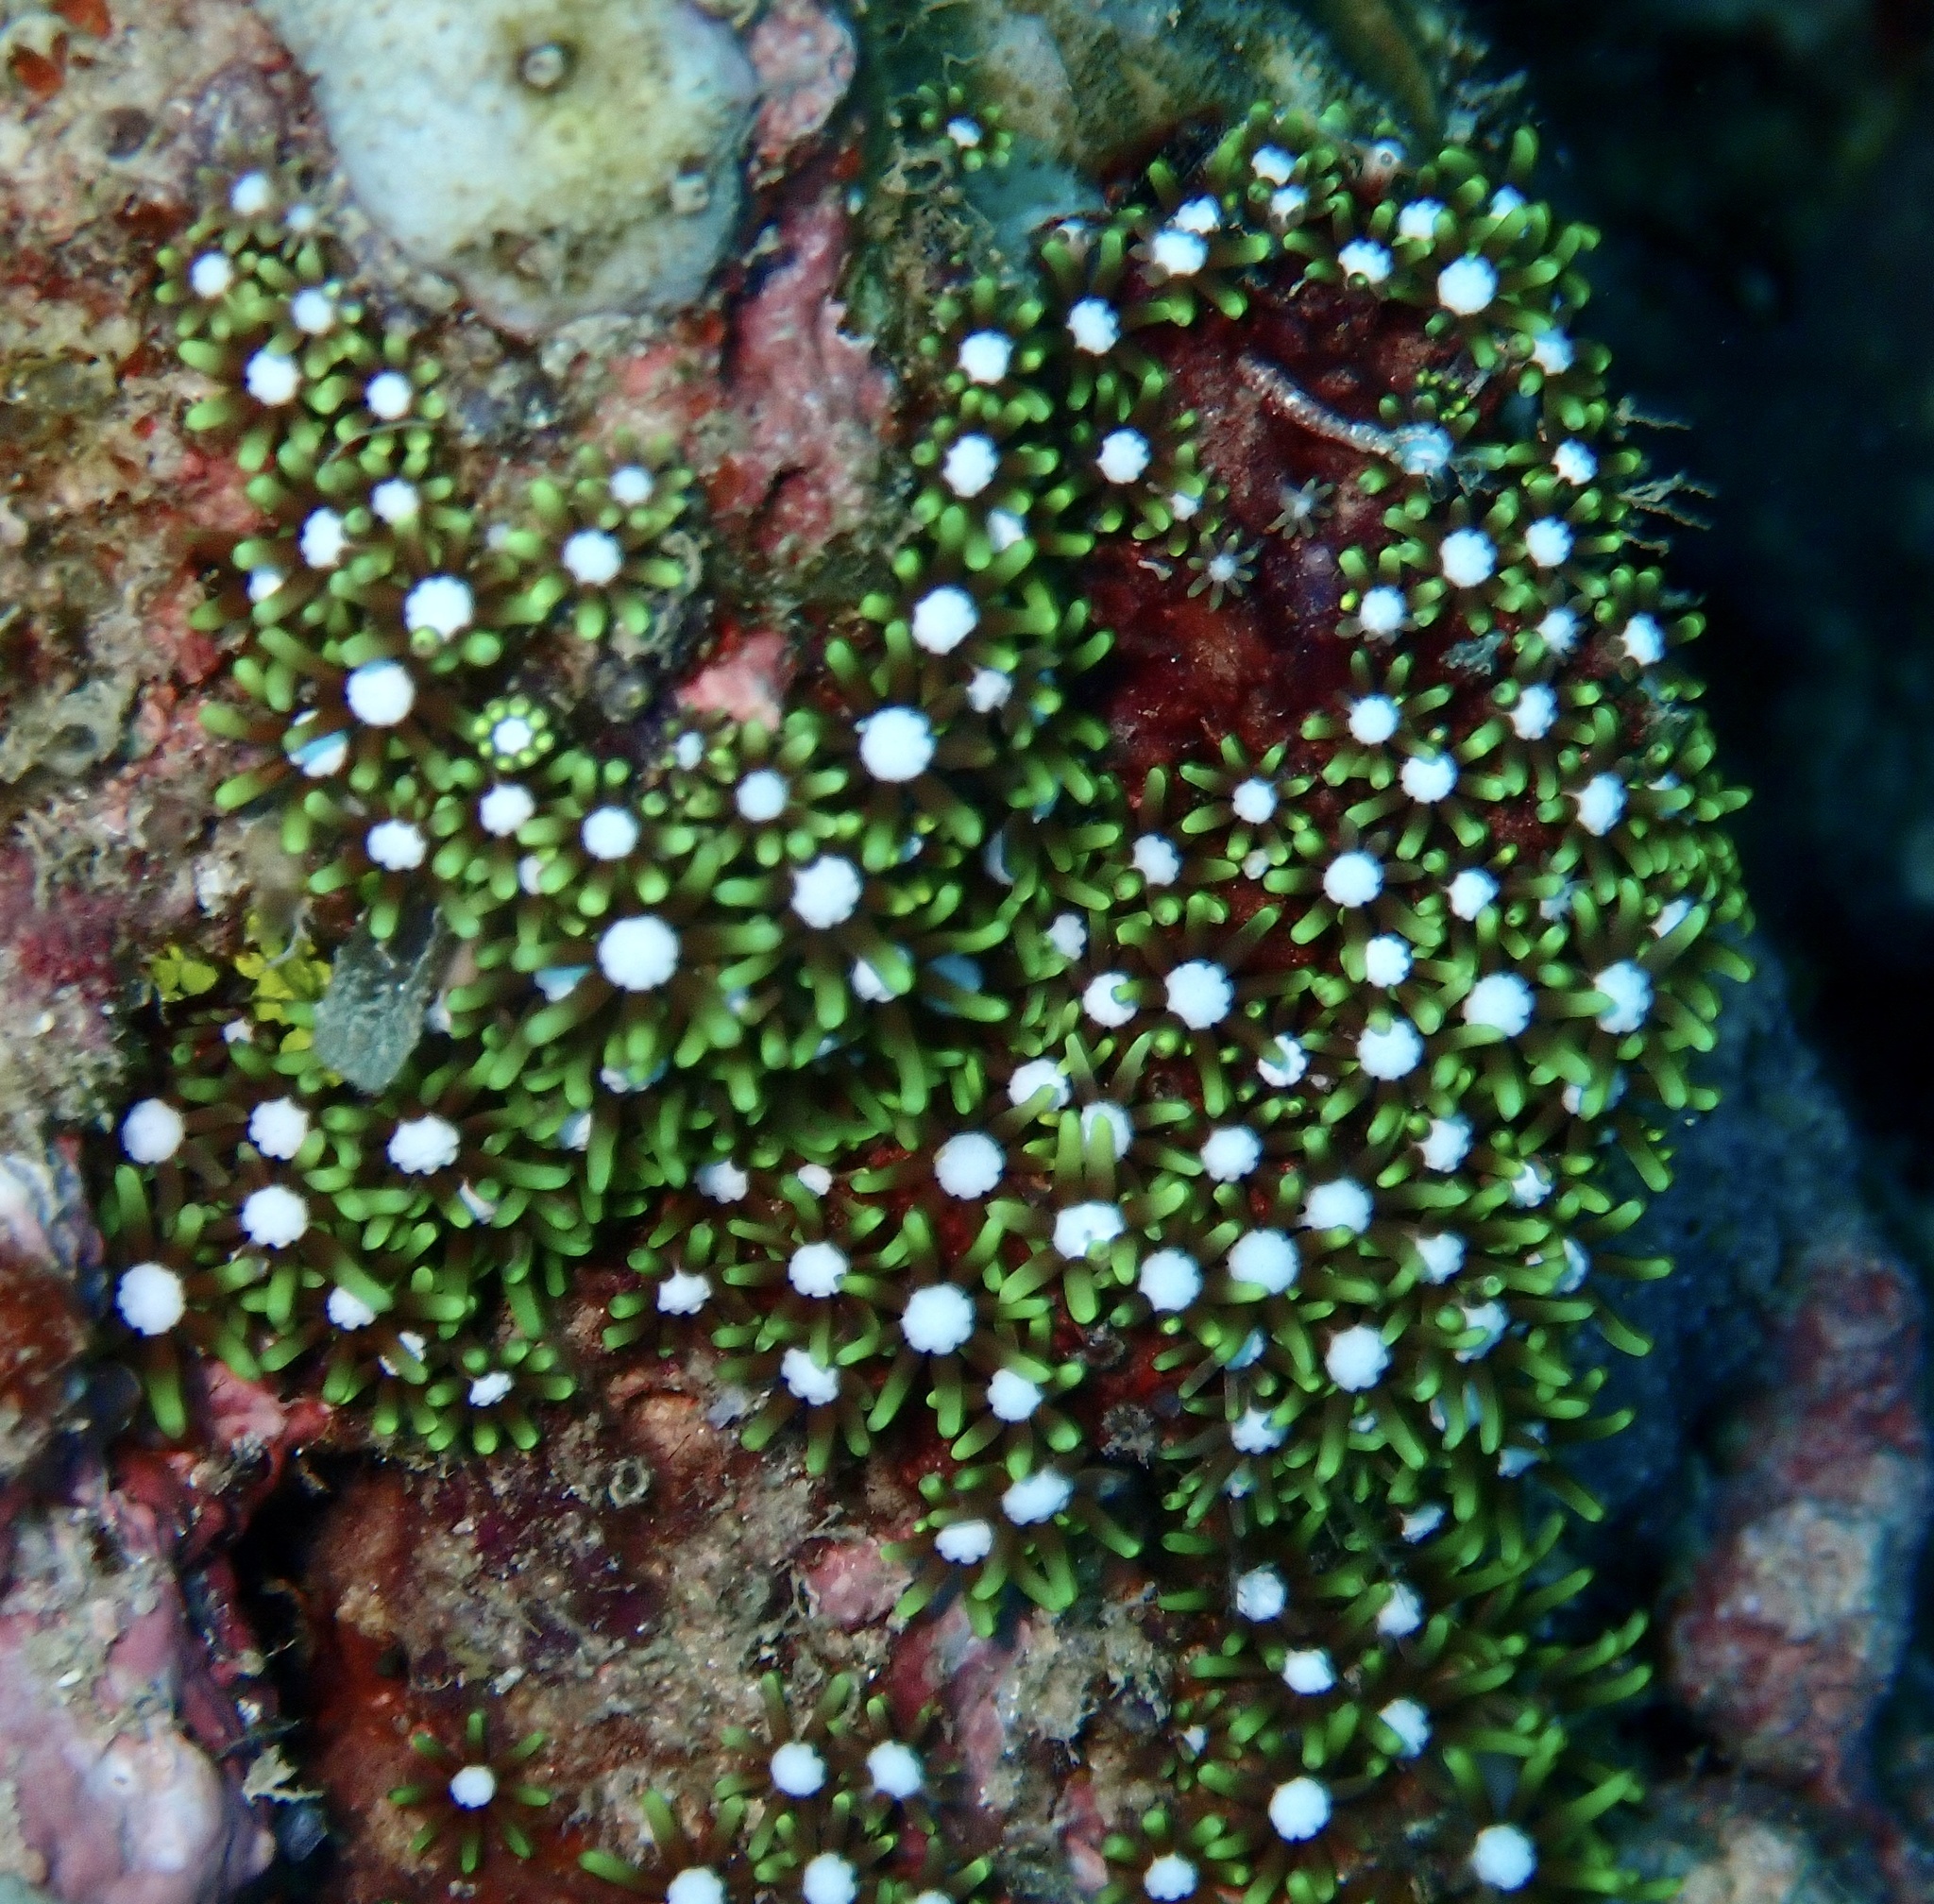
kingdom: Animalia
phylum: Cnidaria
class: Anthozoa
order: Scleralcyonacea
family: Briareidae
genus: Briareum
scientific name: Briareum violaceum
